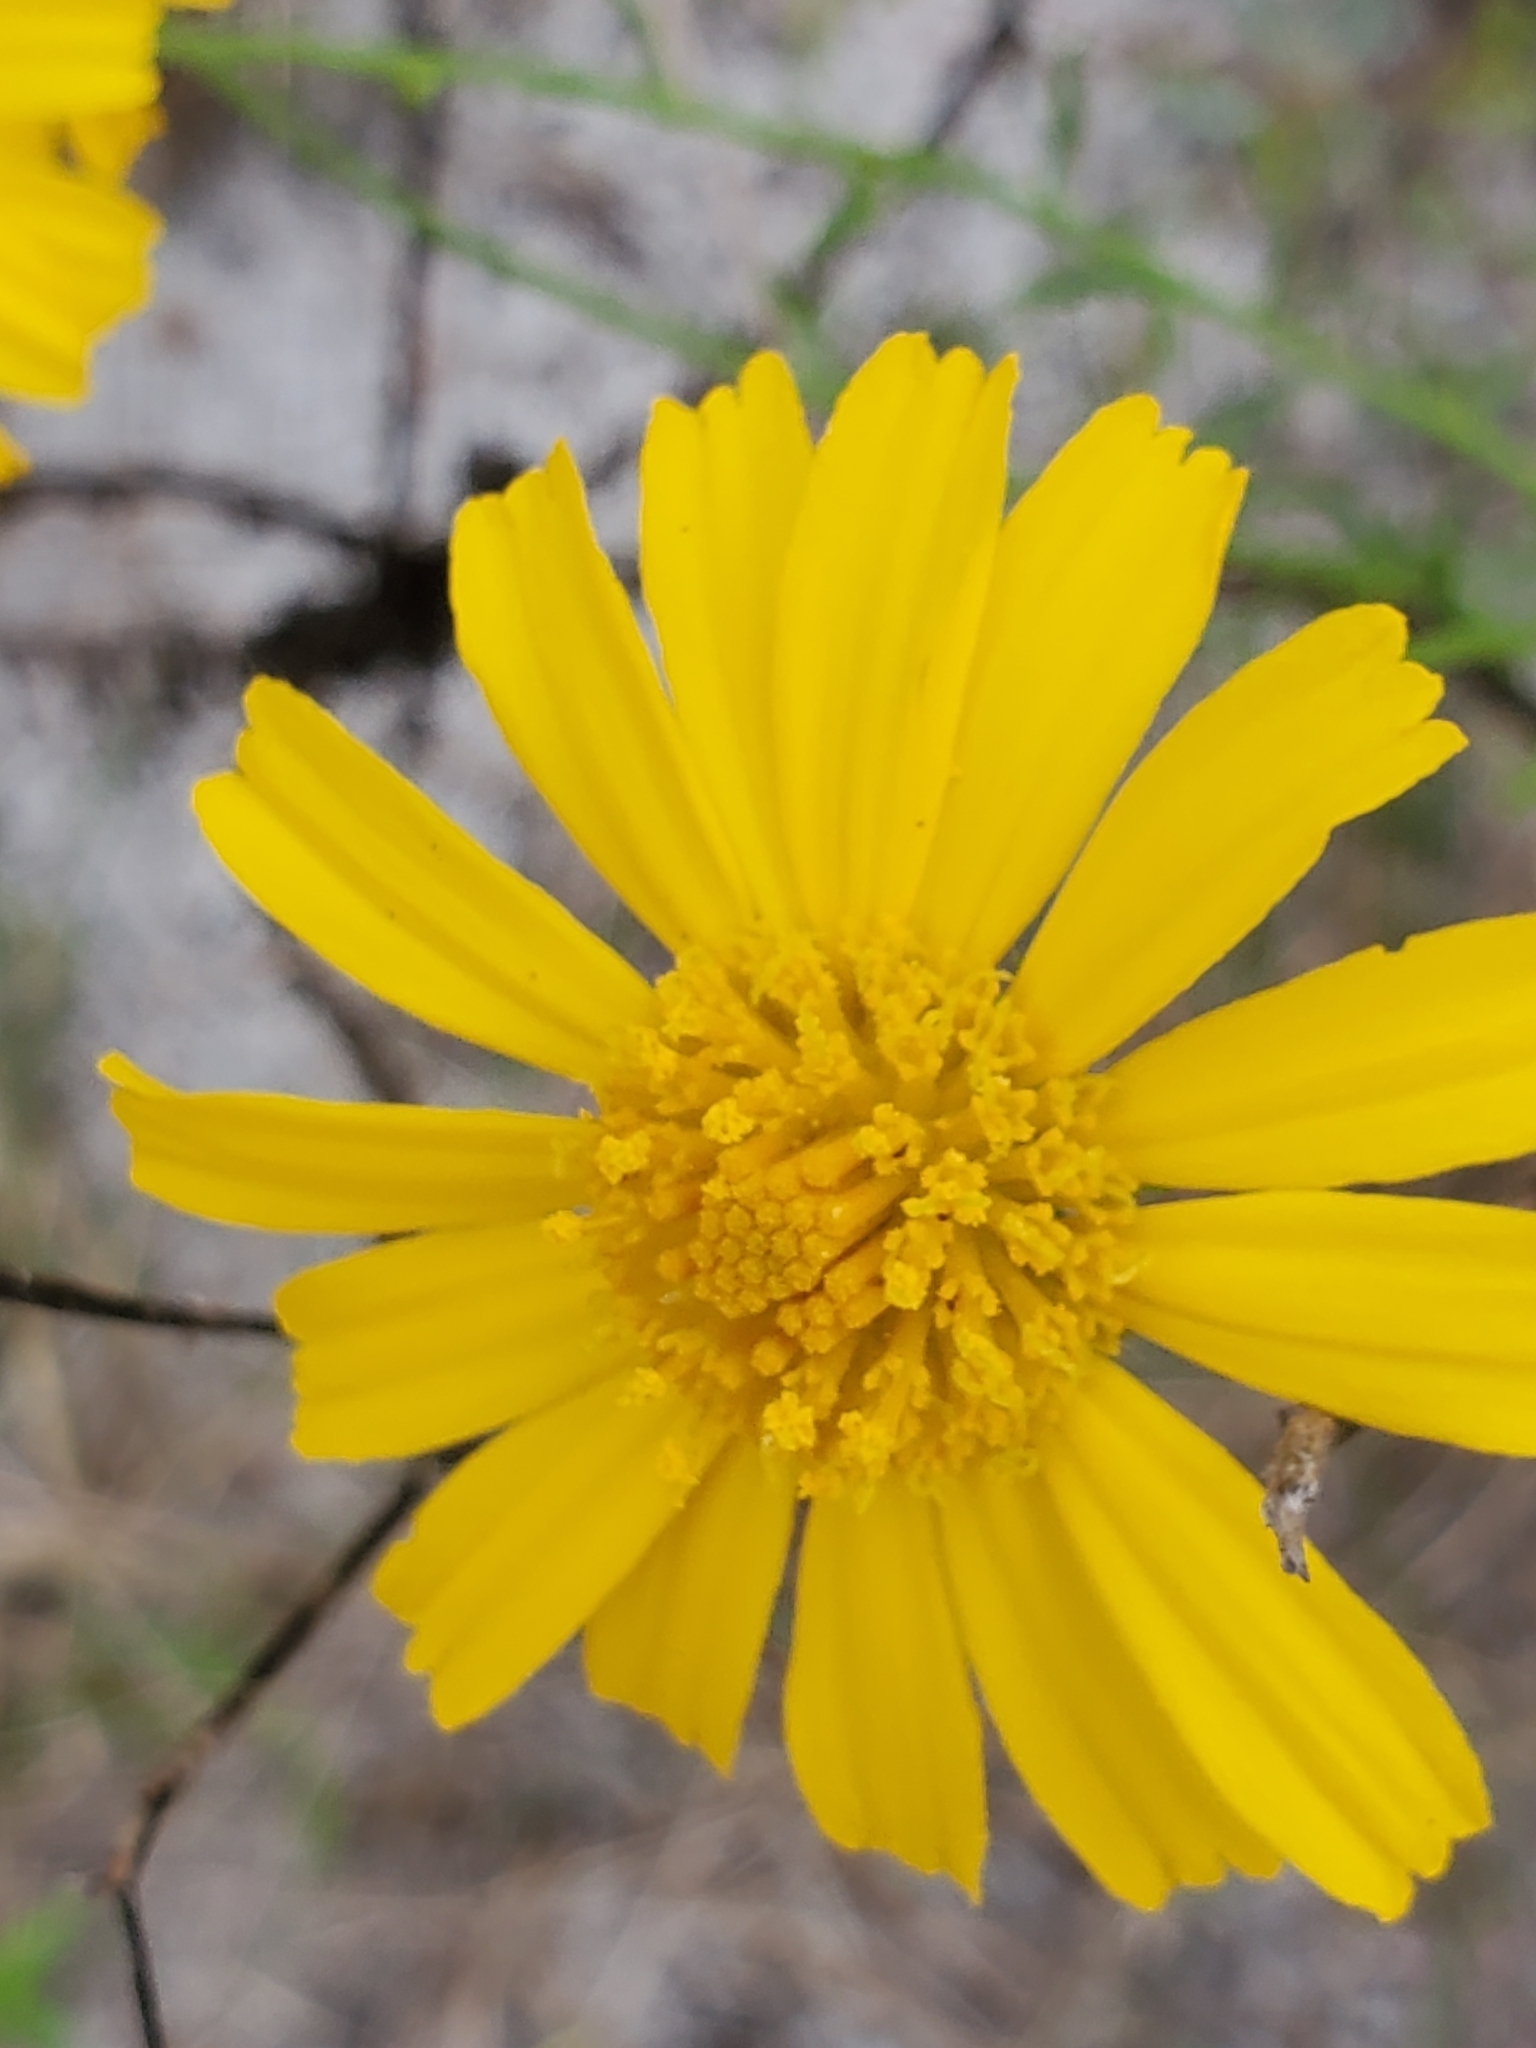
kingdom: Plantae
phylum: Tracheophyta
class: Magnoliopsida
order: Asterales
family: Asteraceae
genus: Balduina
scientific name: Balduina angustifolia
